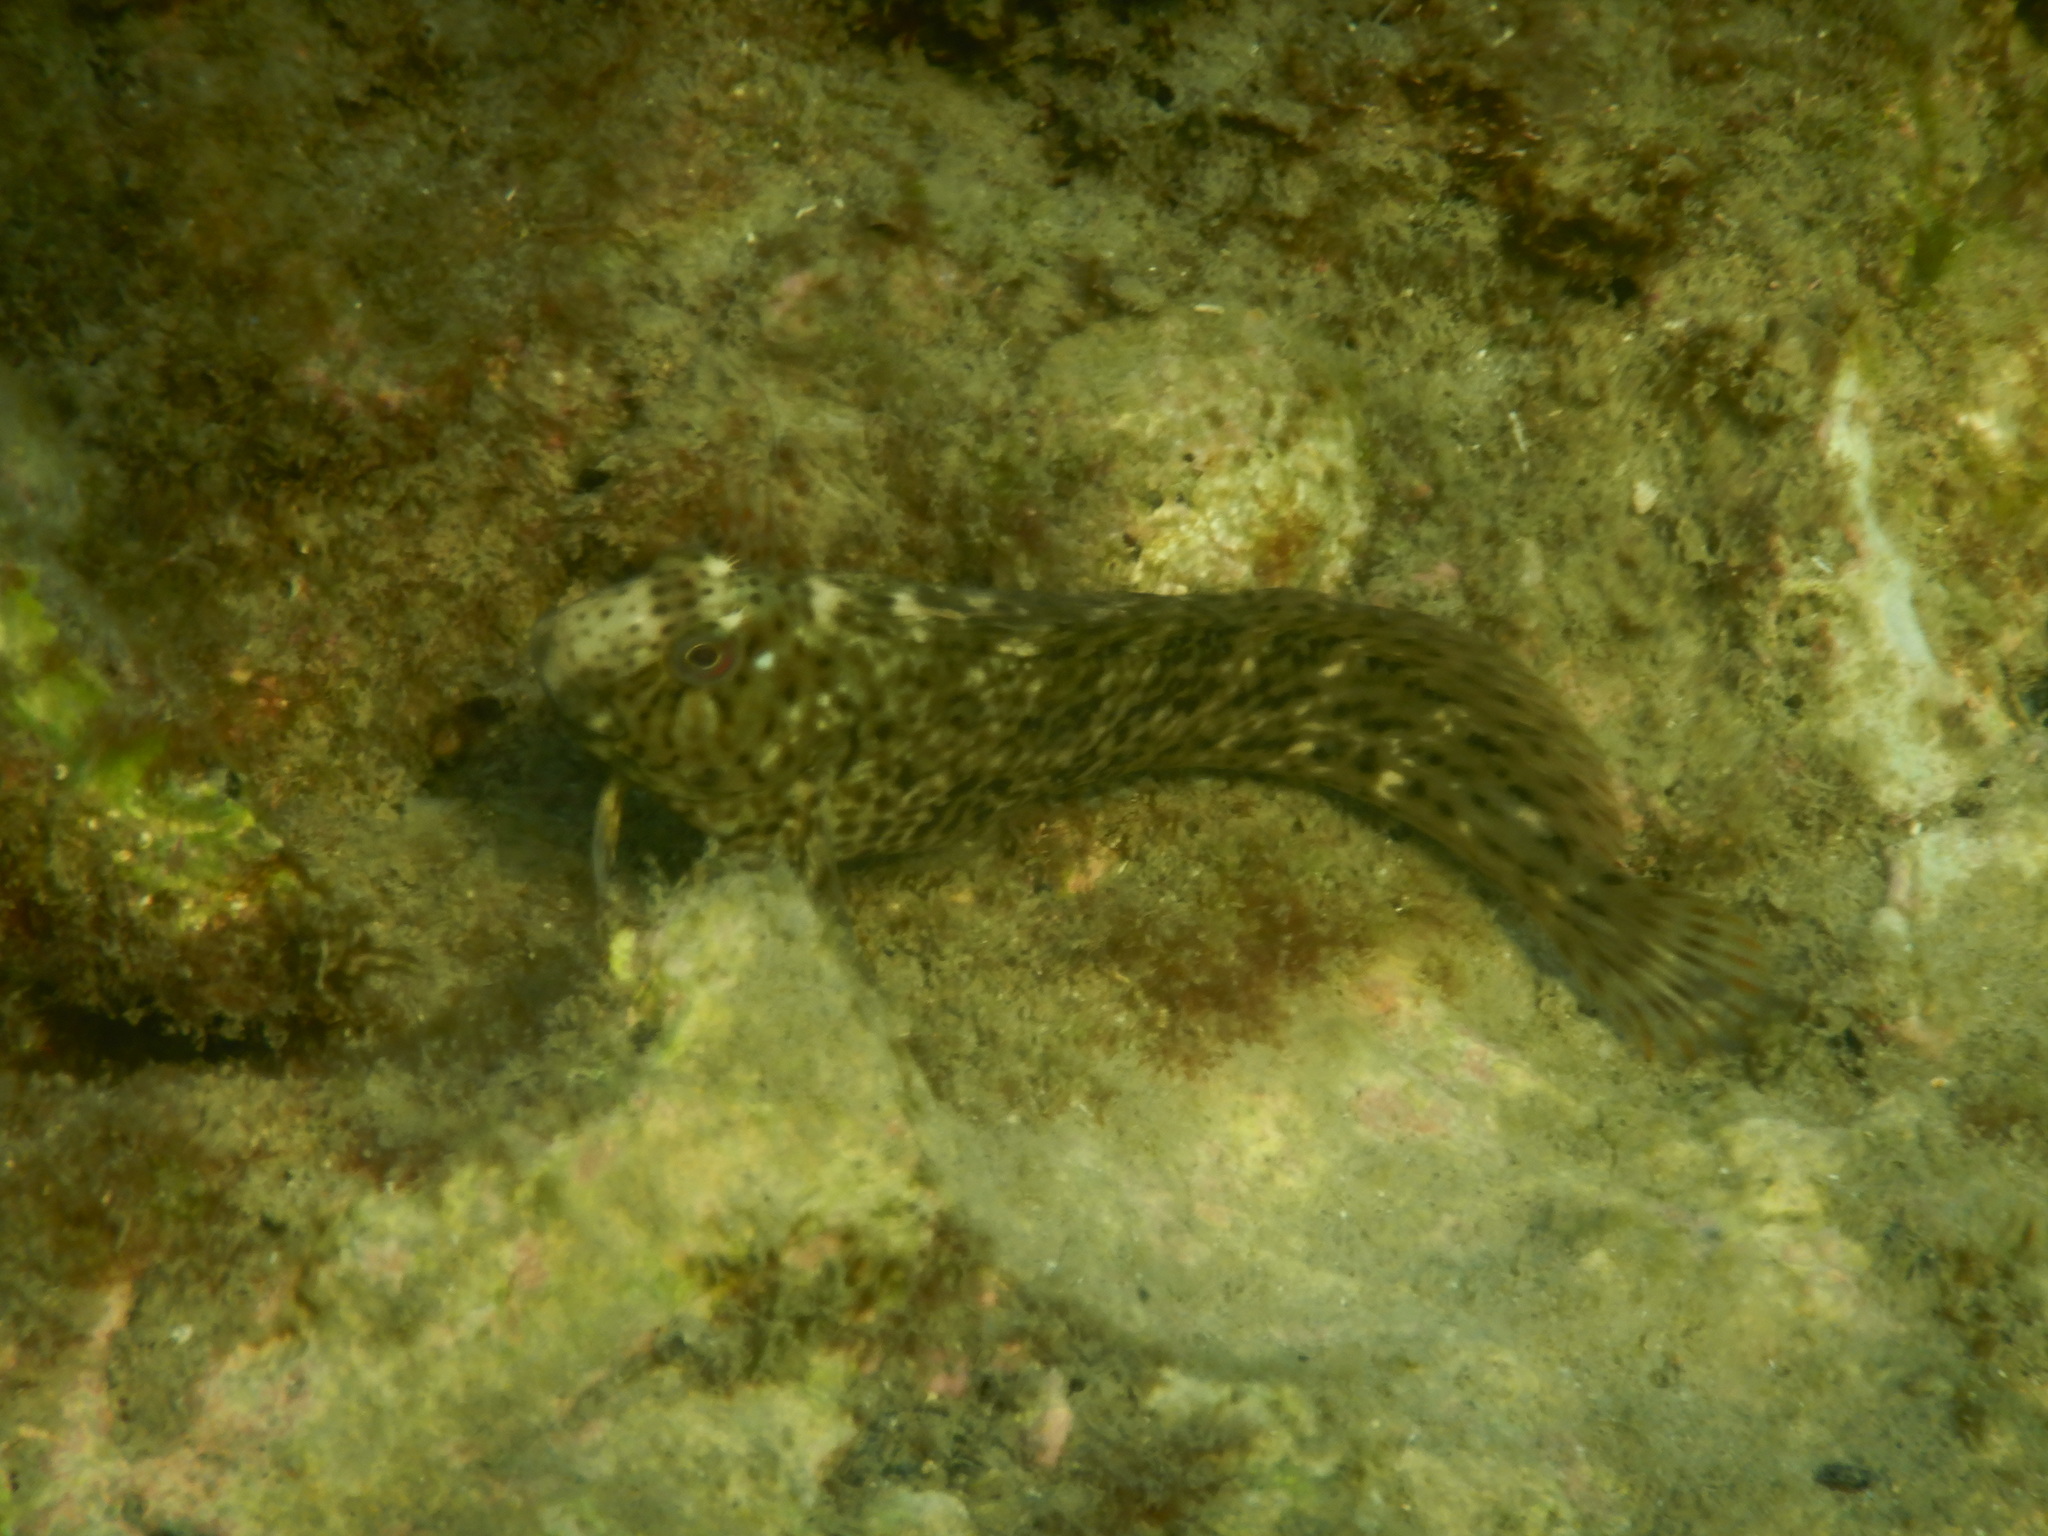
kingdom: Animalia
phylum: Chordata
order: Perciformes
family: Blenniidae
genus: Parablennius
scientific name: Parablennius sanguinolentus
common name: Black sea blenny
